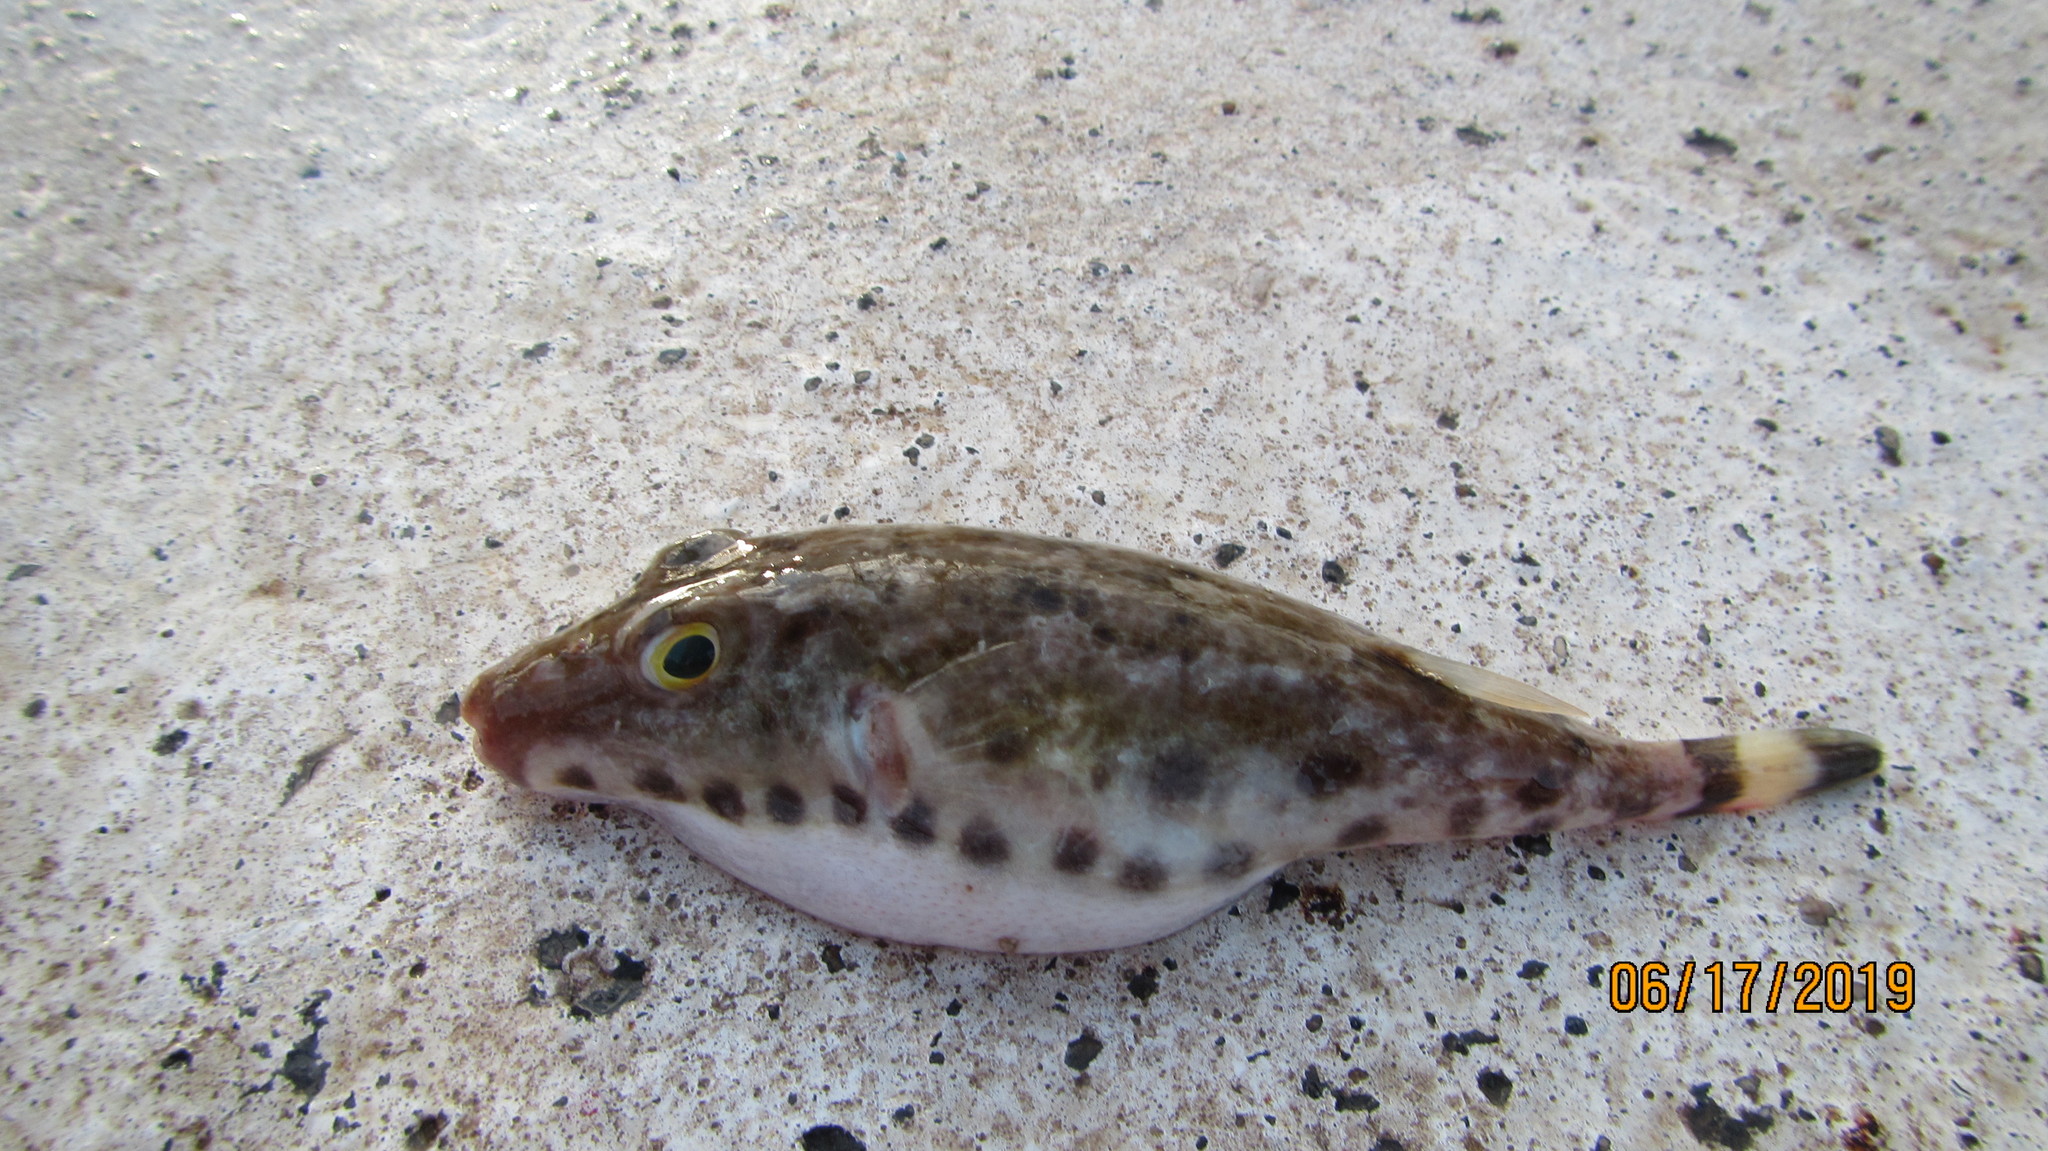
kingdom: Animalia
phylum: Chordata
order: Tetraodontiformes
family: Tetraodontidae
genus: Sphoeroides
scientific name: Sphoeroides spengleri
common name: Bandtail puffer
